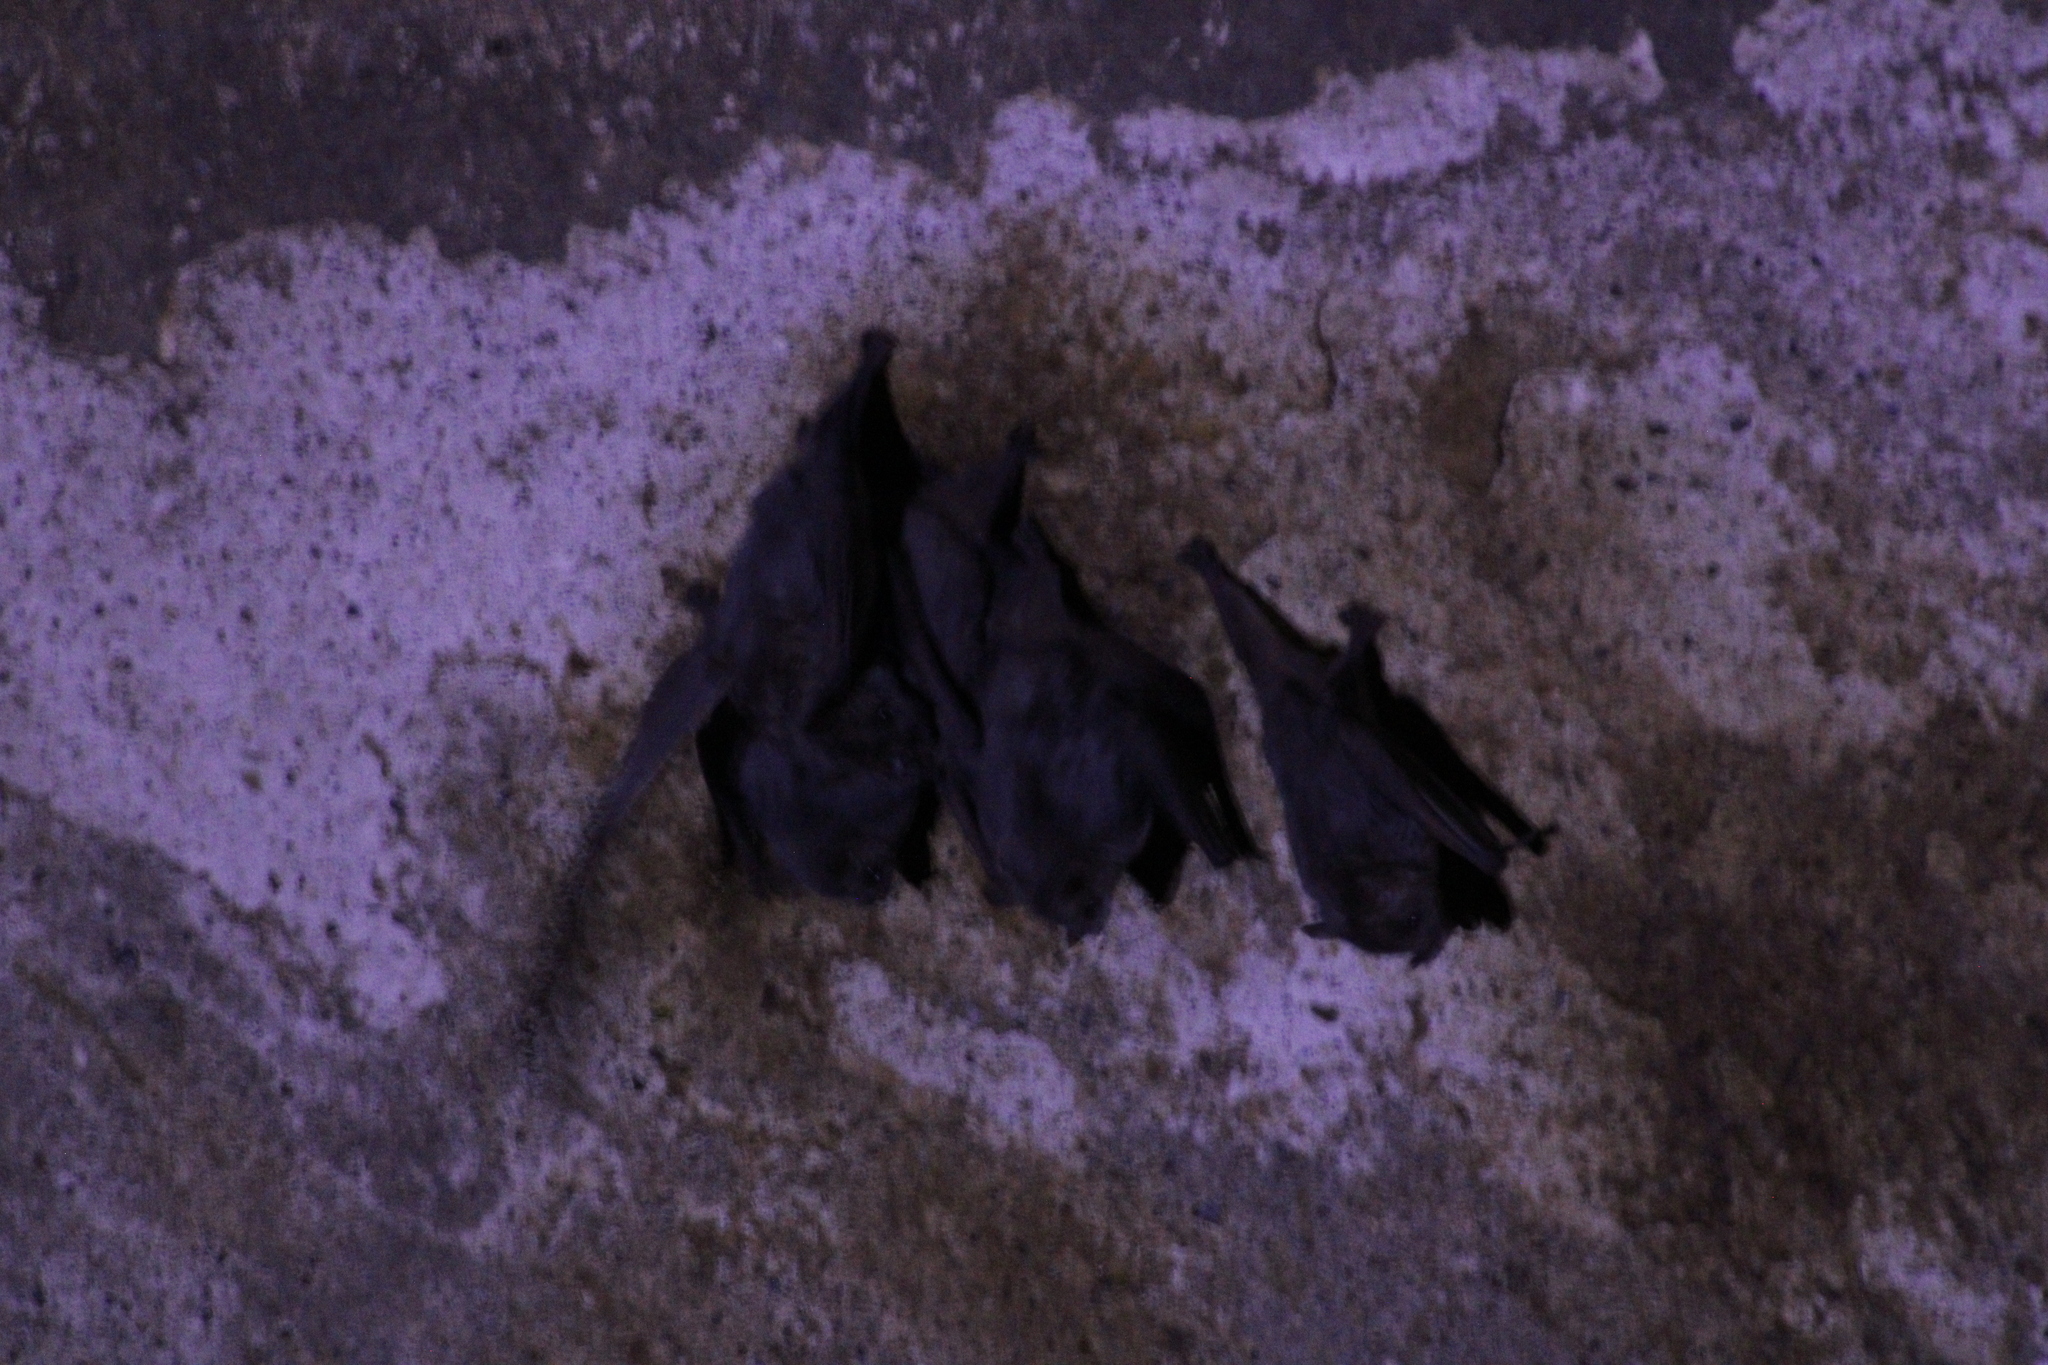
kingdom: Animalia
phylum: Chordata
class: Mammalia
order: Chiroptera
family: Phyllostomidae
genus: Artibeus
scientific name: Artibeus jamaicensis
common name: Jamaican fruit-eating bat
